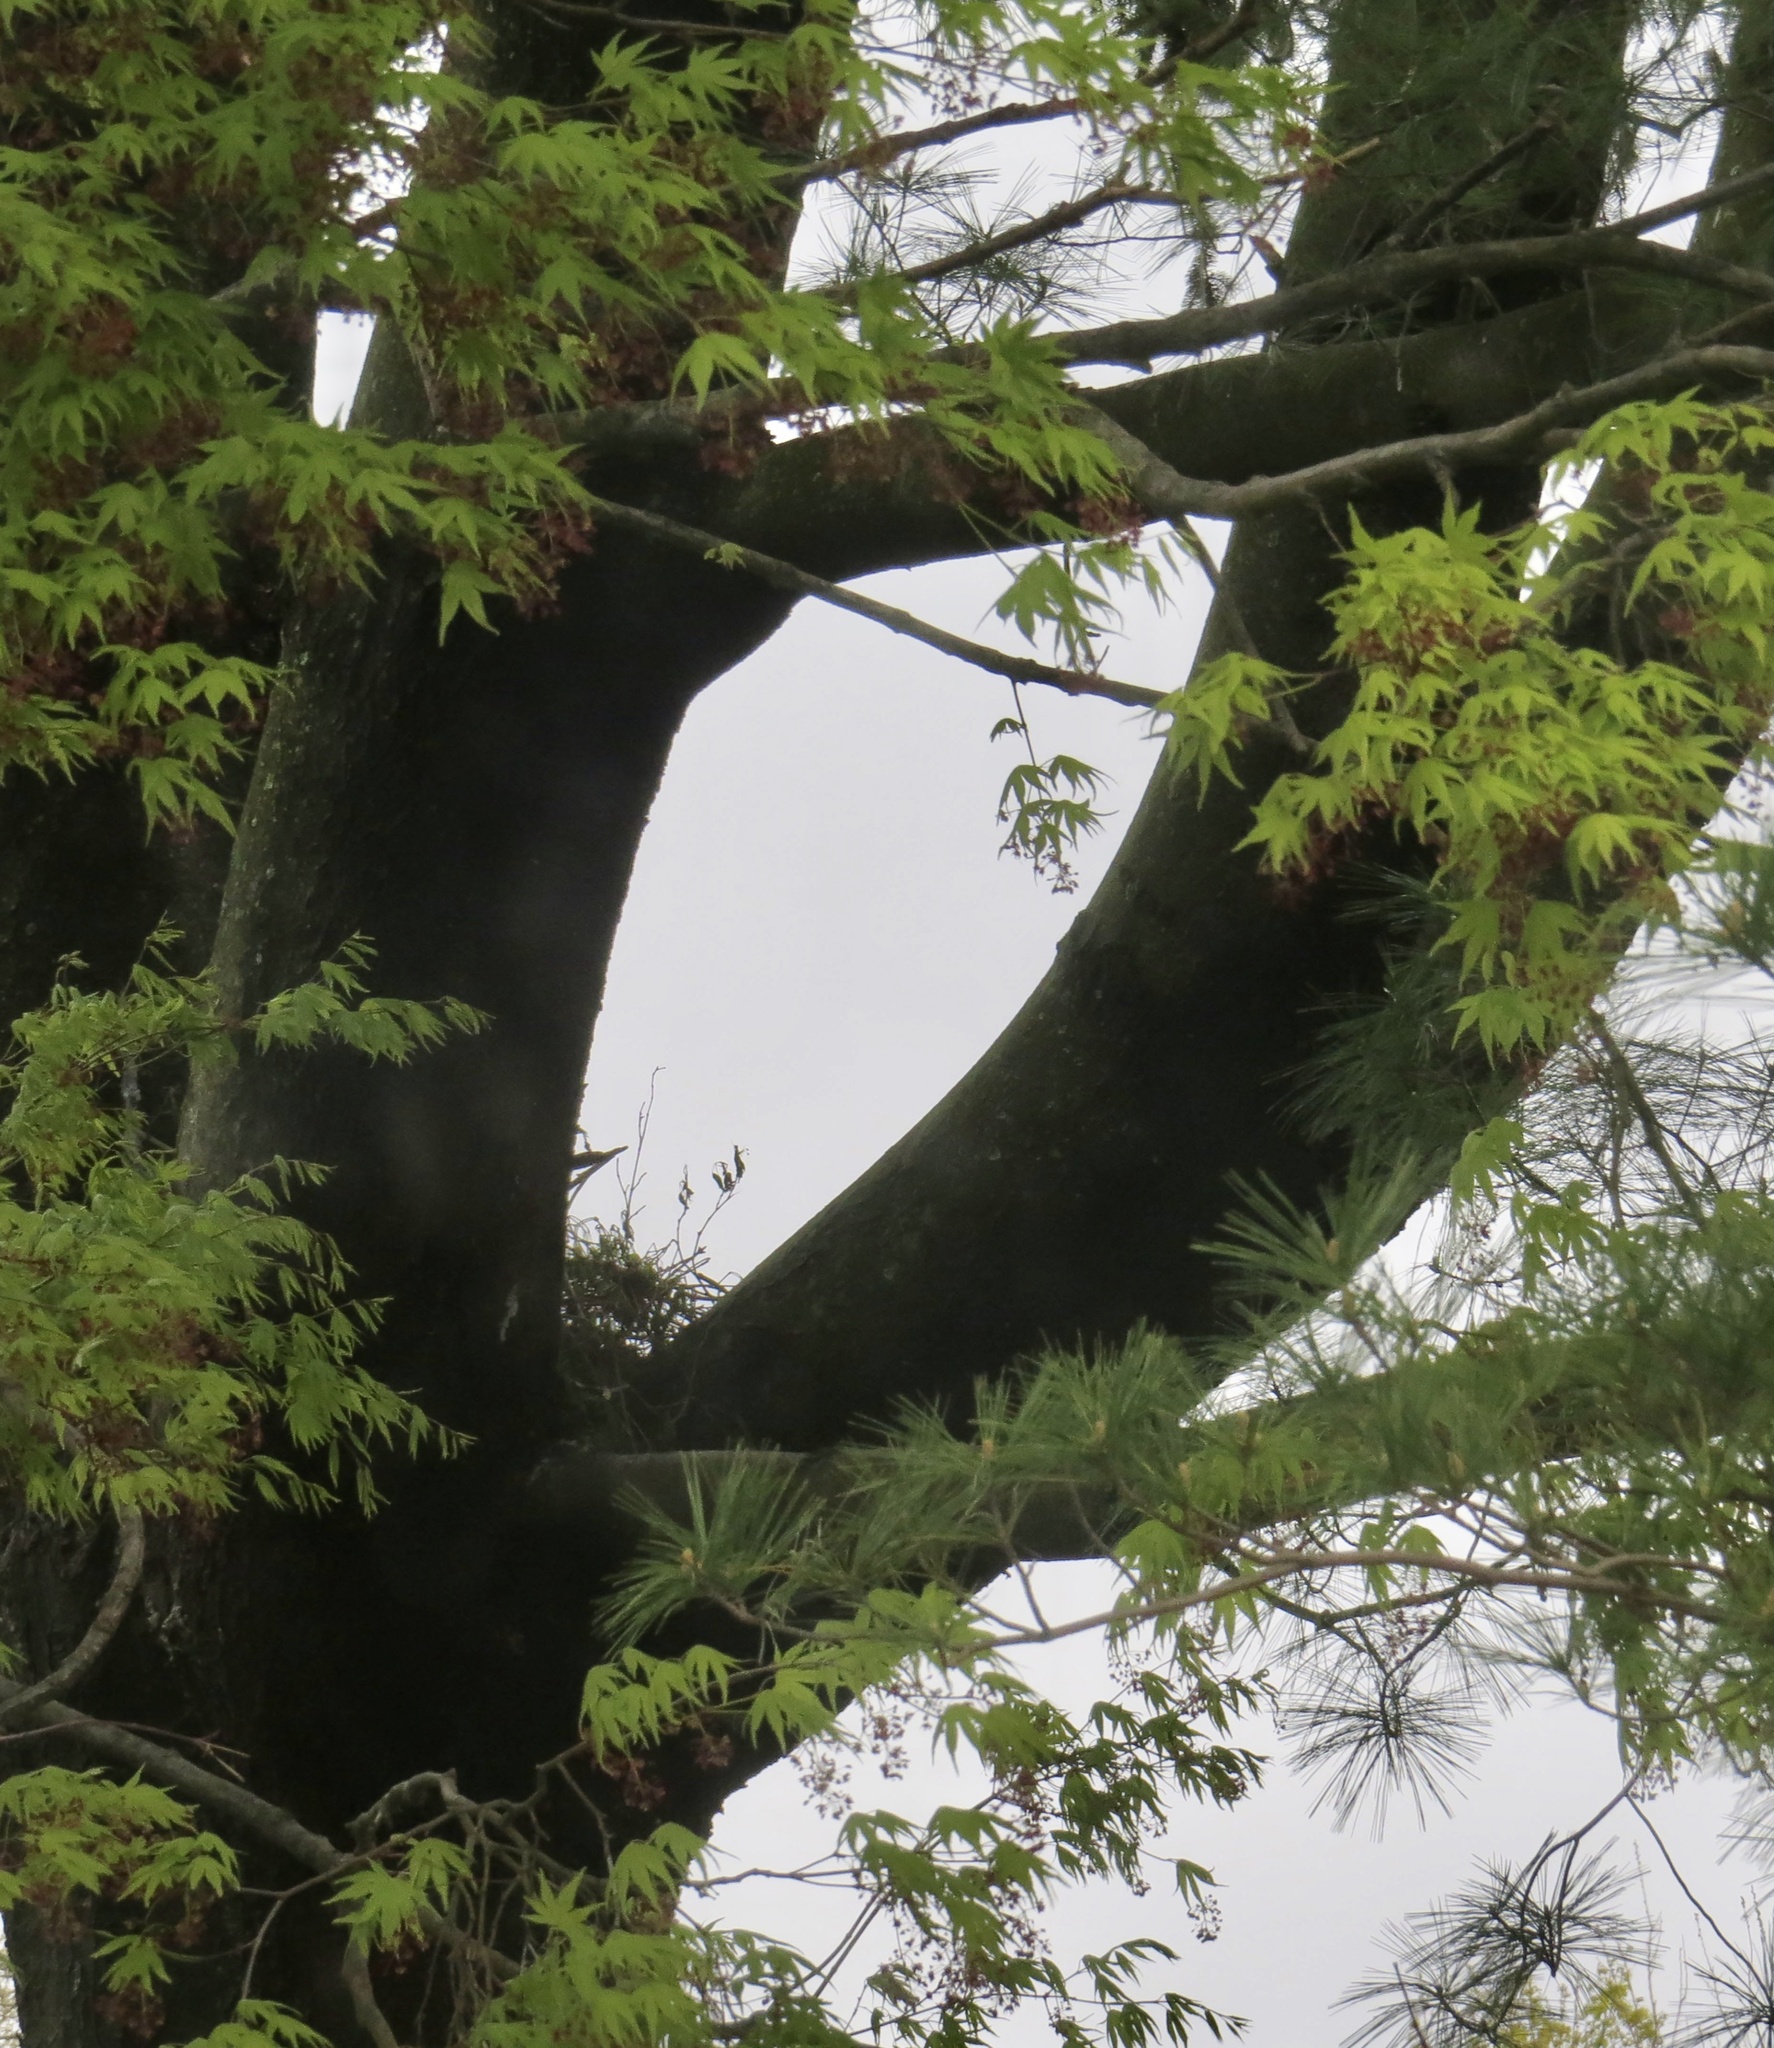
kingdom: Animalia
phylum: Chordata
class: Mammalia
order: Rodentia
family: Sciuridae
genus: Sciurus
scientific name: Sciurus carolinensis
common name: Eastern gray squirrel
